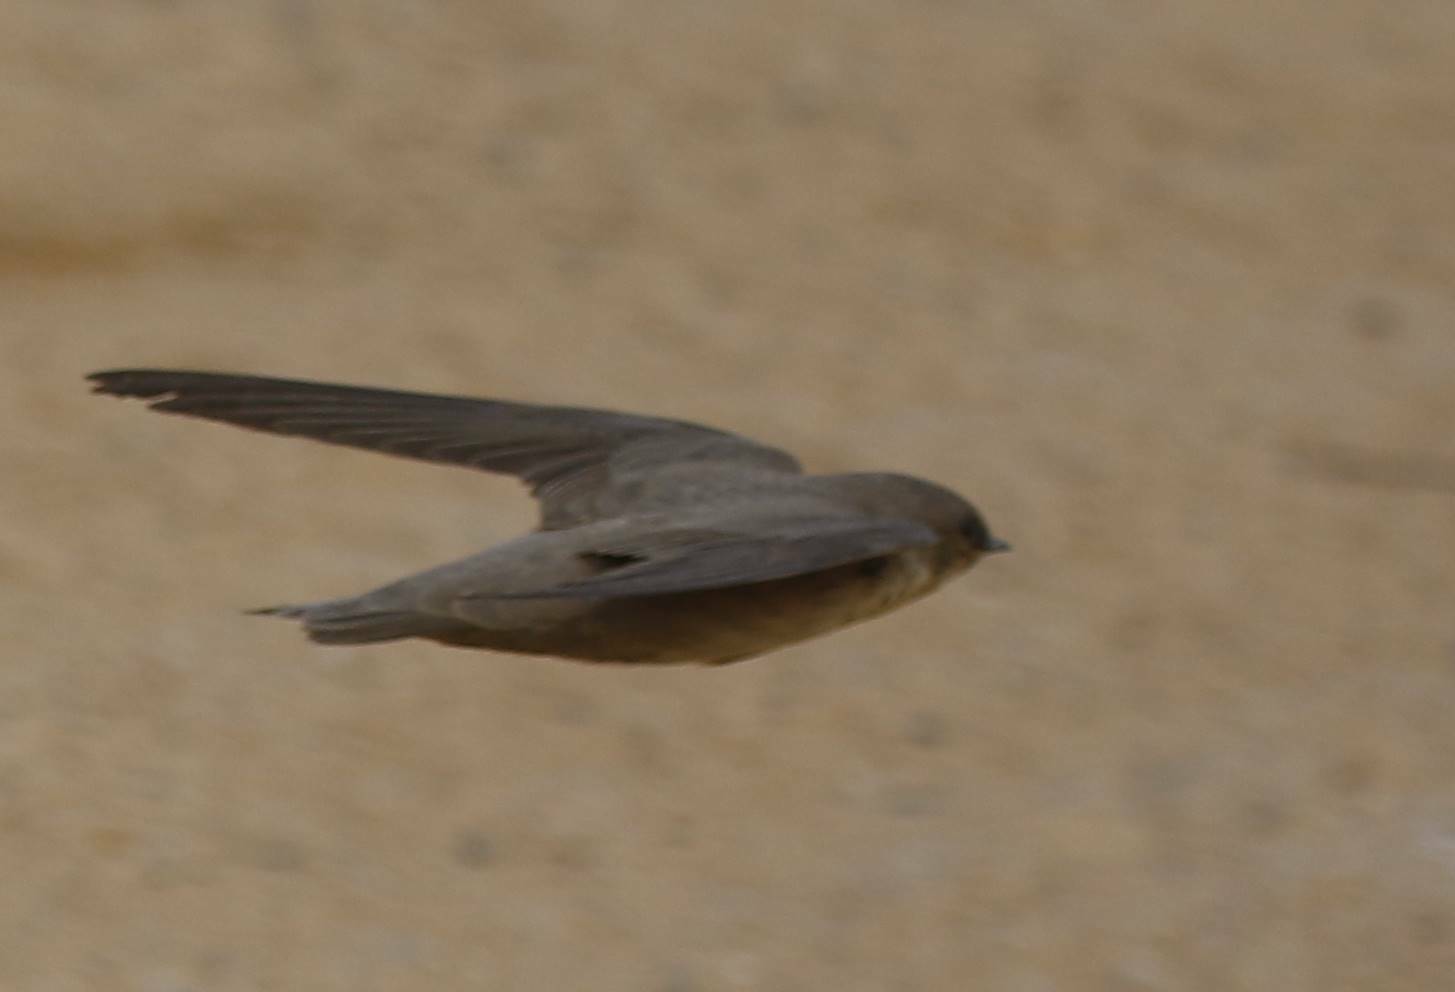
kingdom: Animalia
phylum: Chordata
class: Aves
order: Passeriformes
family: Hirundinidae
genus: Ptyonoprogne
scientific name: Ptyonoprogne fuligula
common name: Rock martin
